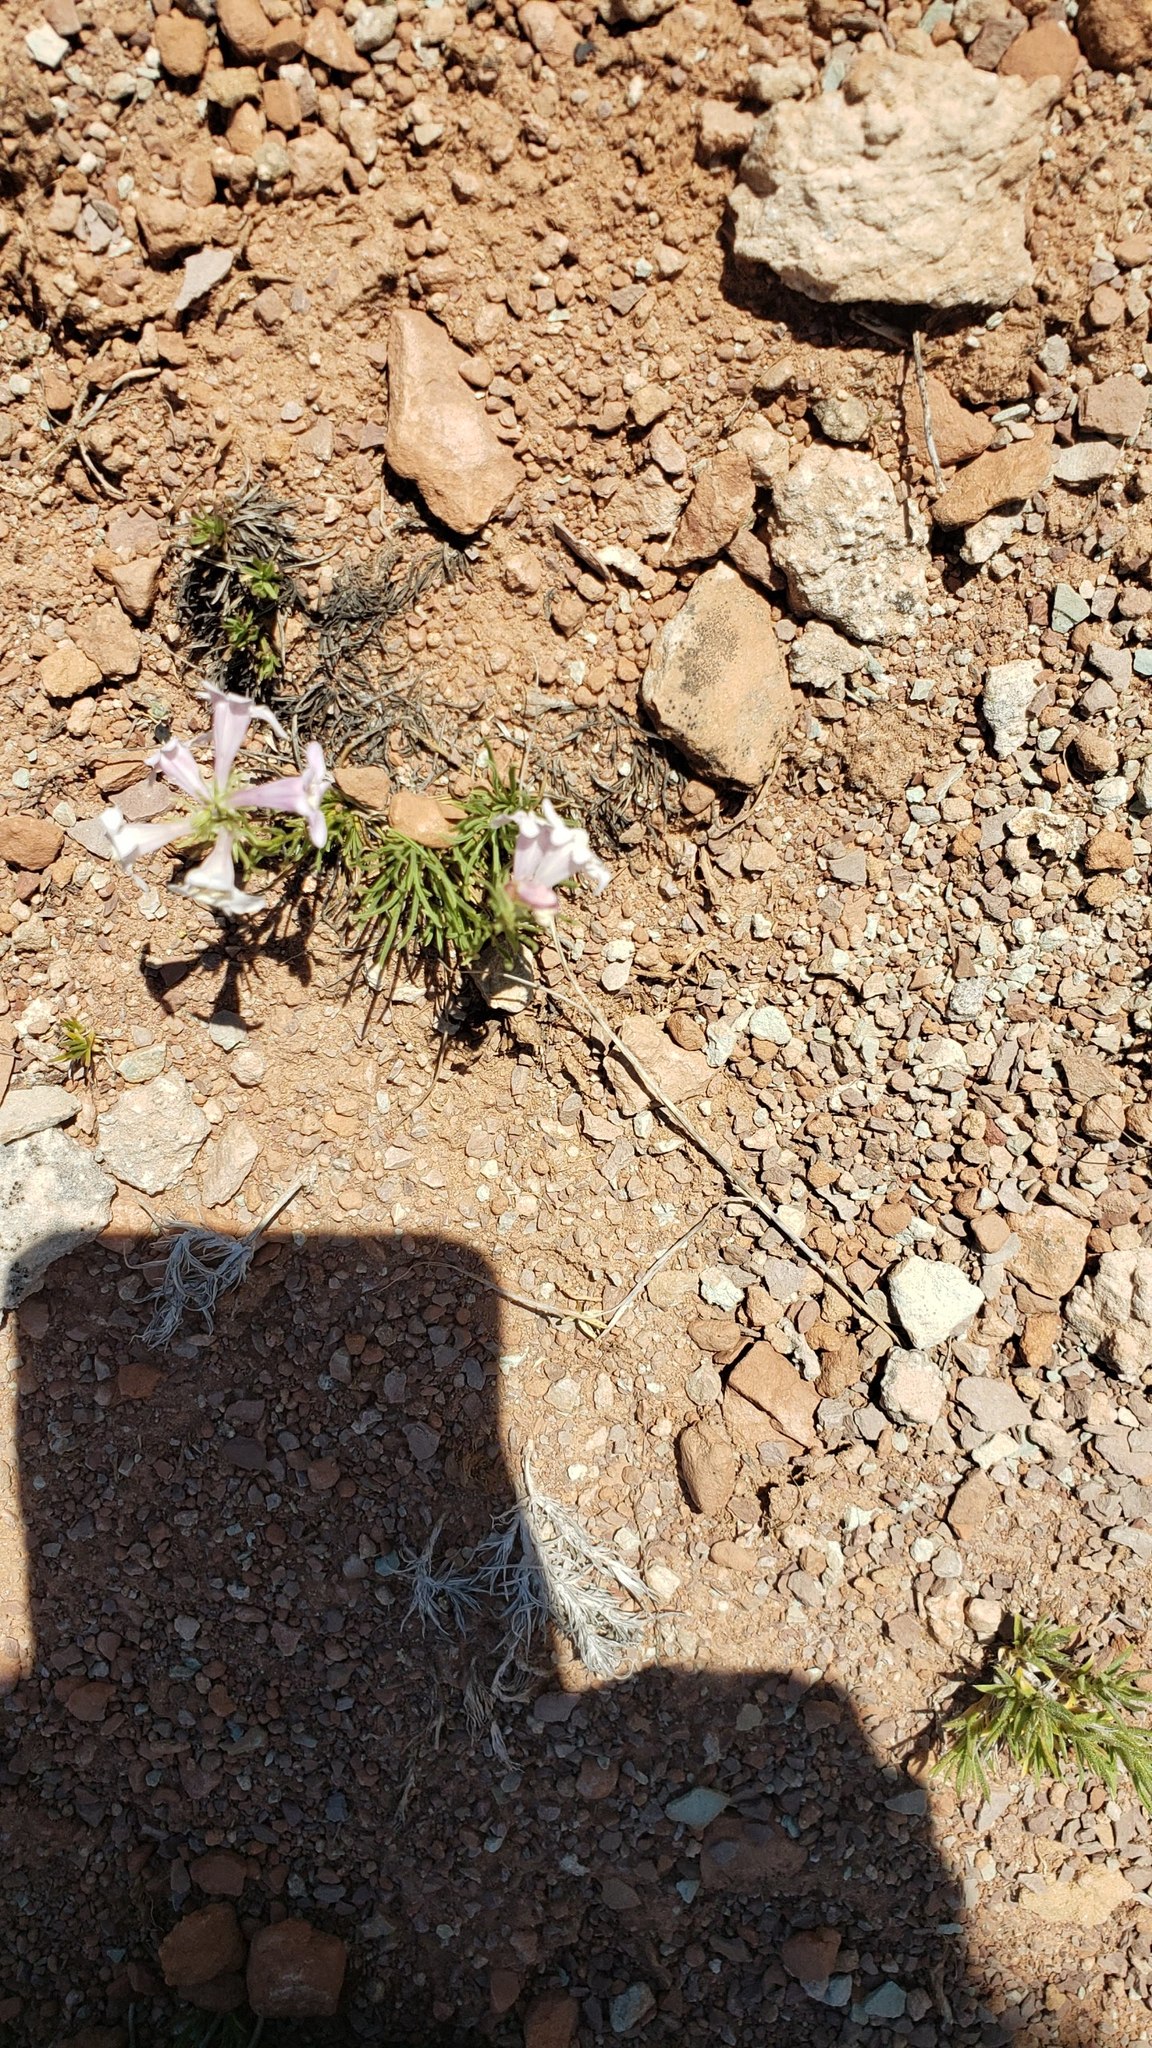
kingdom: Plantae
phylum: Tracheophyta
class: Magnoliopsida
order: Lamiales
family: Plantaginaceae
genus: Penstemon
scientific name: Penstemon laricifolius
